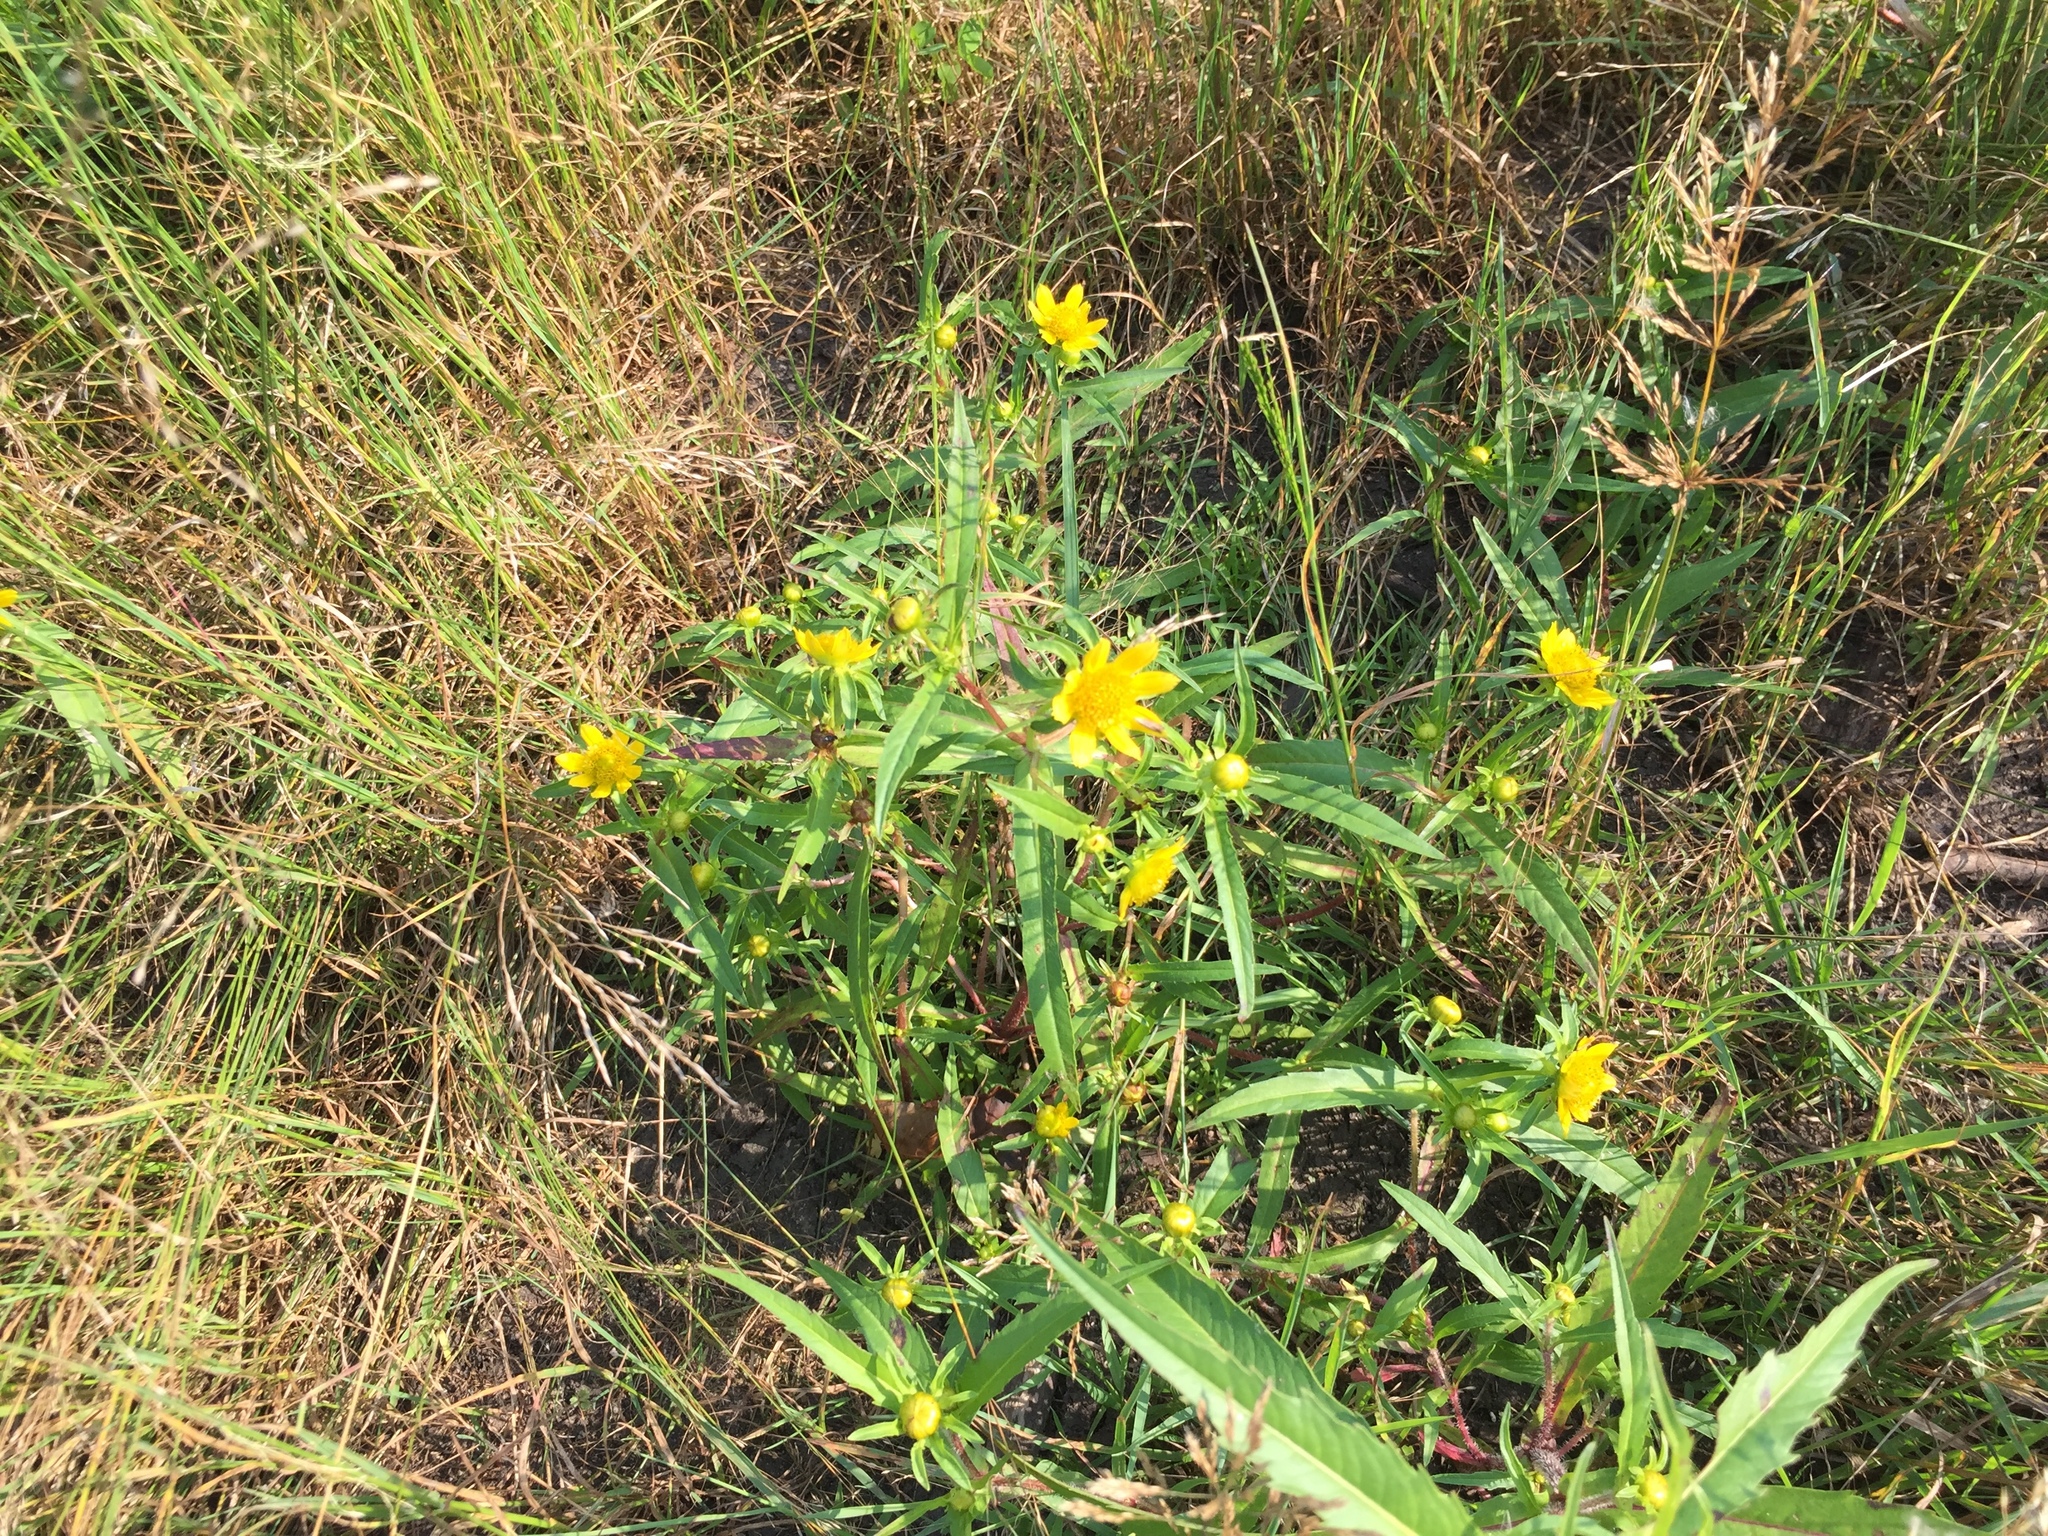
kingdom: Plantae
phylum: Tracheophyta
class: Magnoliopsida
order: Asterales
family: Asteraceae
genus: Bidens
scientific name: Bidens cernua
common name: Nodding bur-marigold
